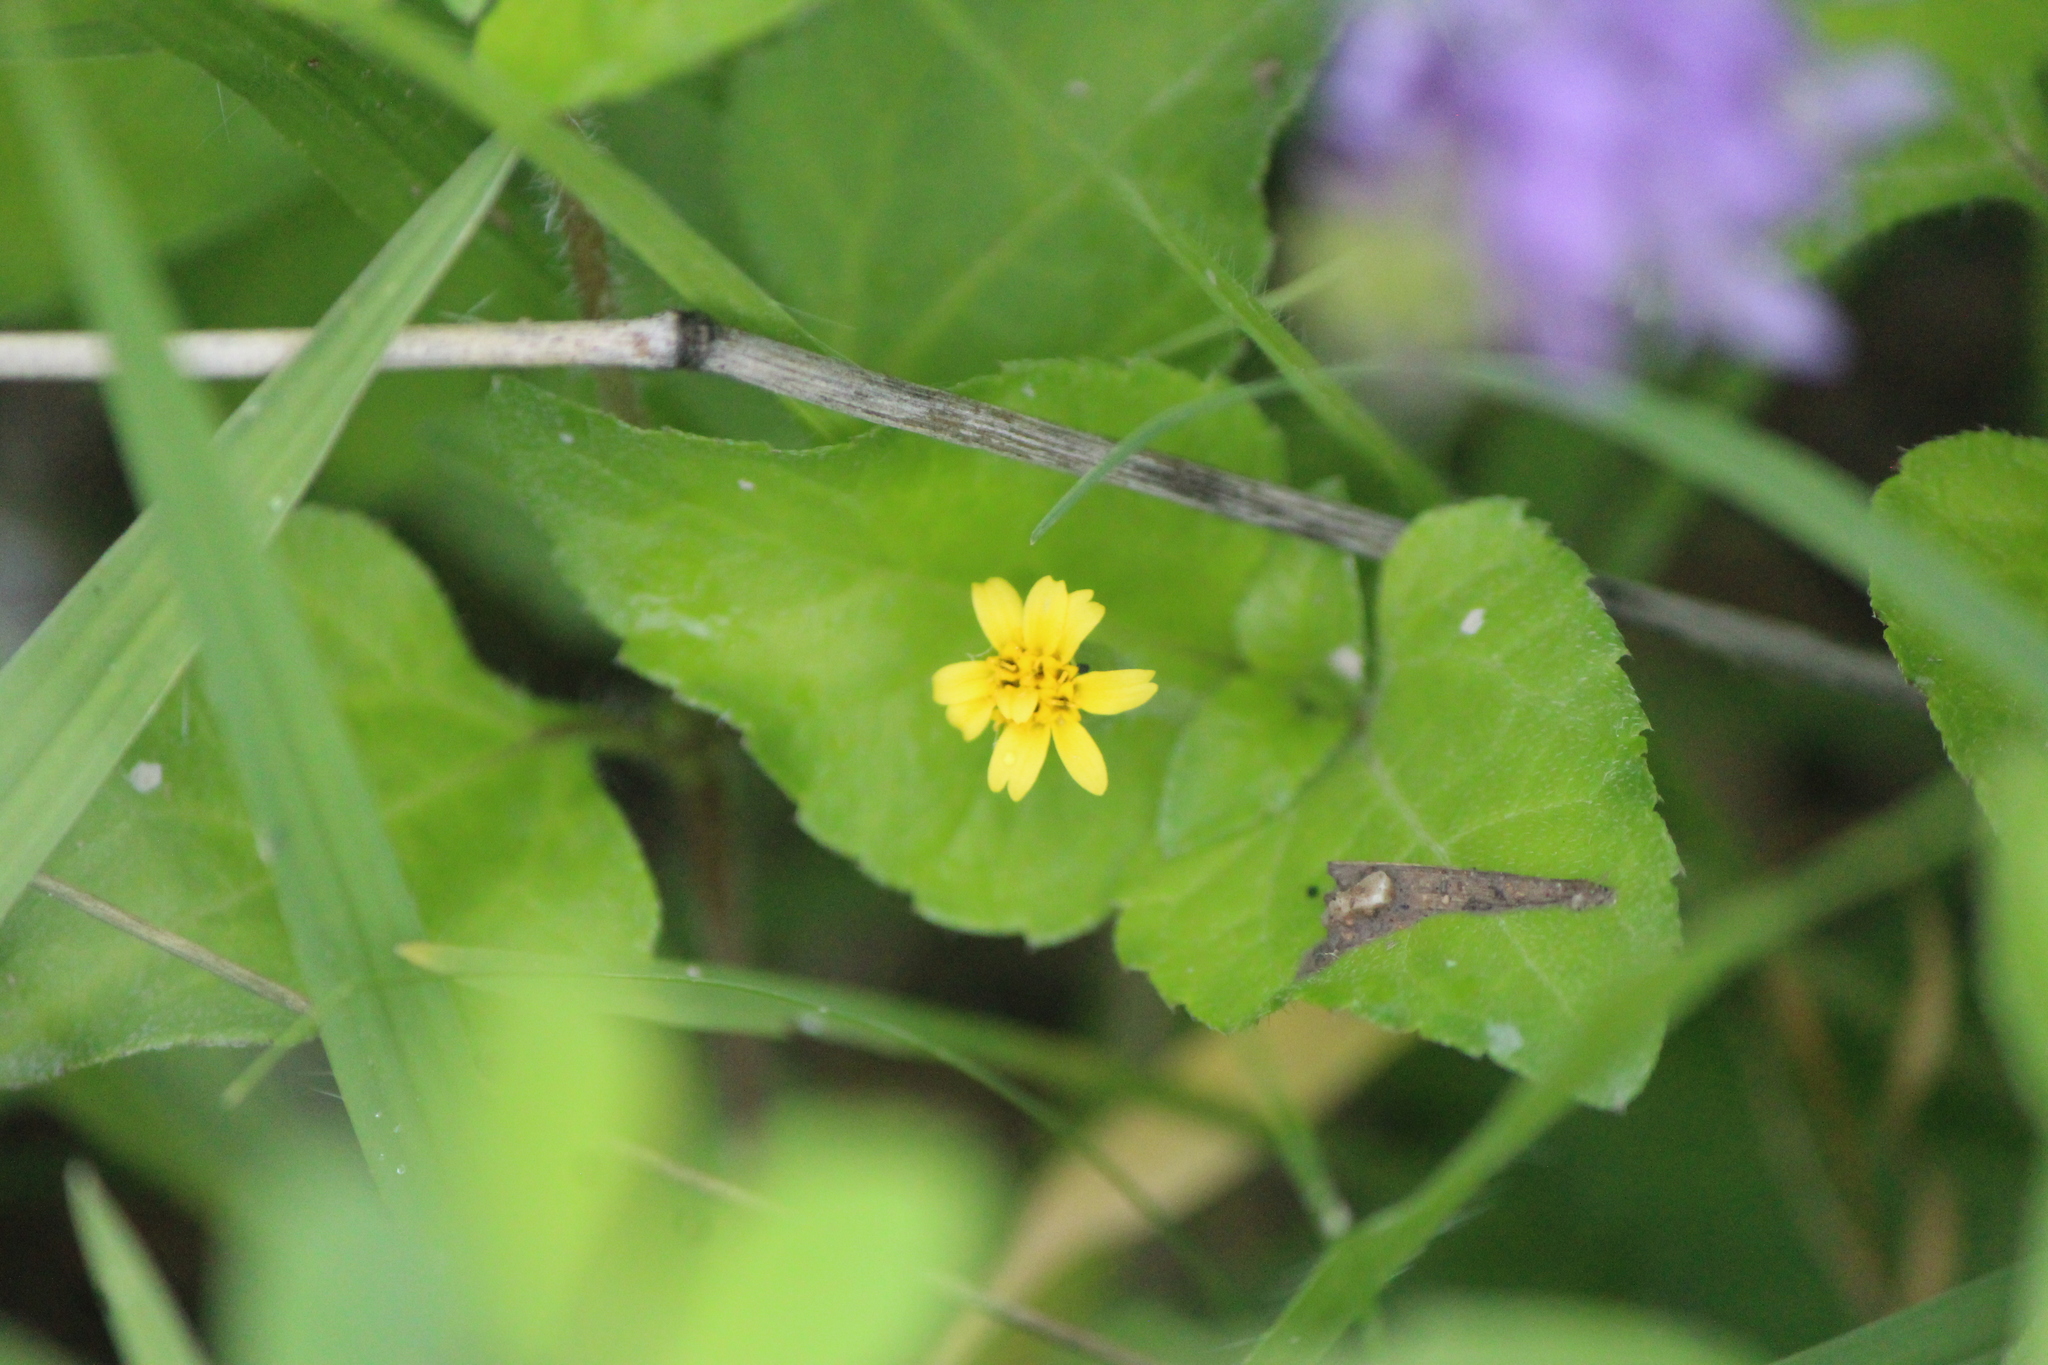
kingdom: Plantae
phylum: Tracheophyta
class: Magnoliopsida
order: Asterales
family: Asteraceae
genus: Calyptocarpus
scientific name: Calyptocarpus vialis
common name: Straggler daisy
